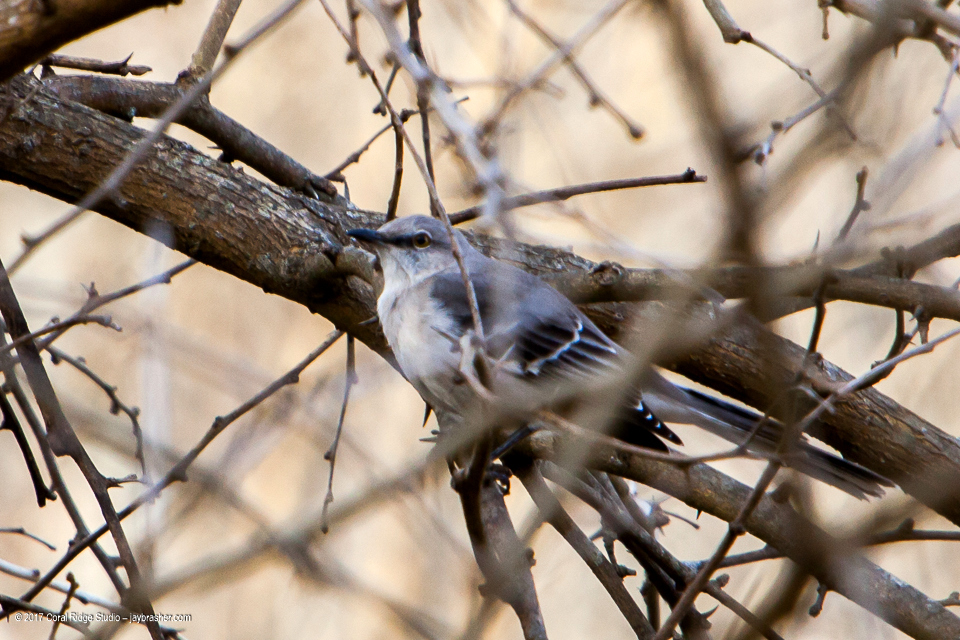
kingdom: Animalia
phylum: Chordata
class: Aves
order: Passeriformes
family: Mimidae
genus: Mimus
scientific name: Mimus polyglottos
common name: Northern mockingbird
